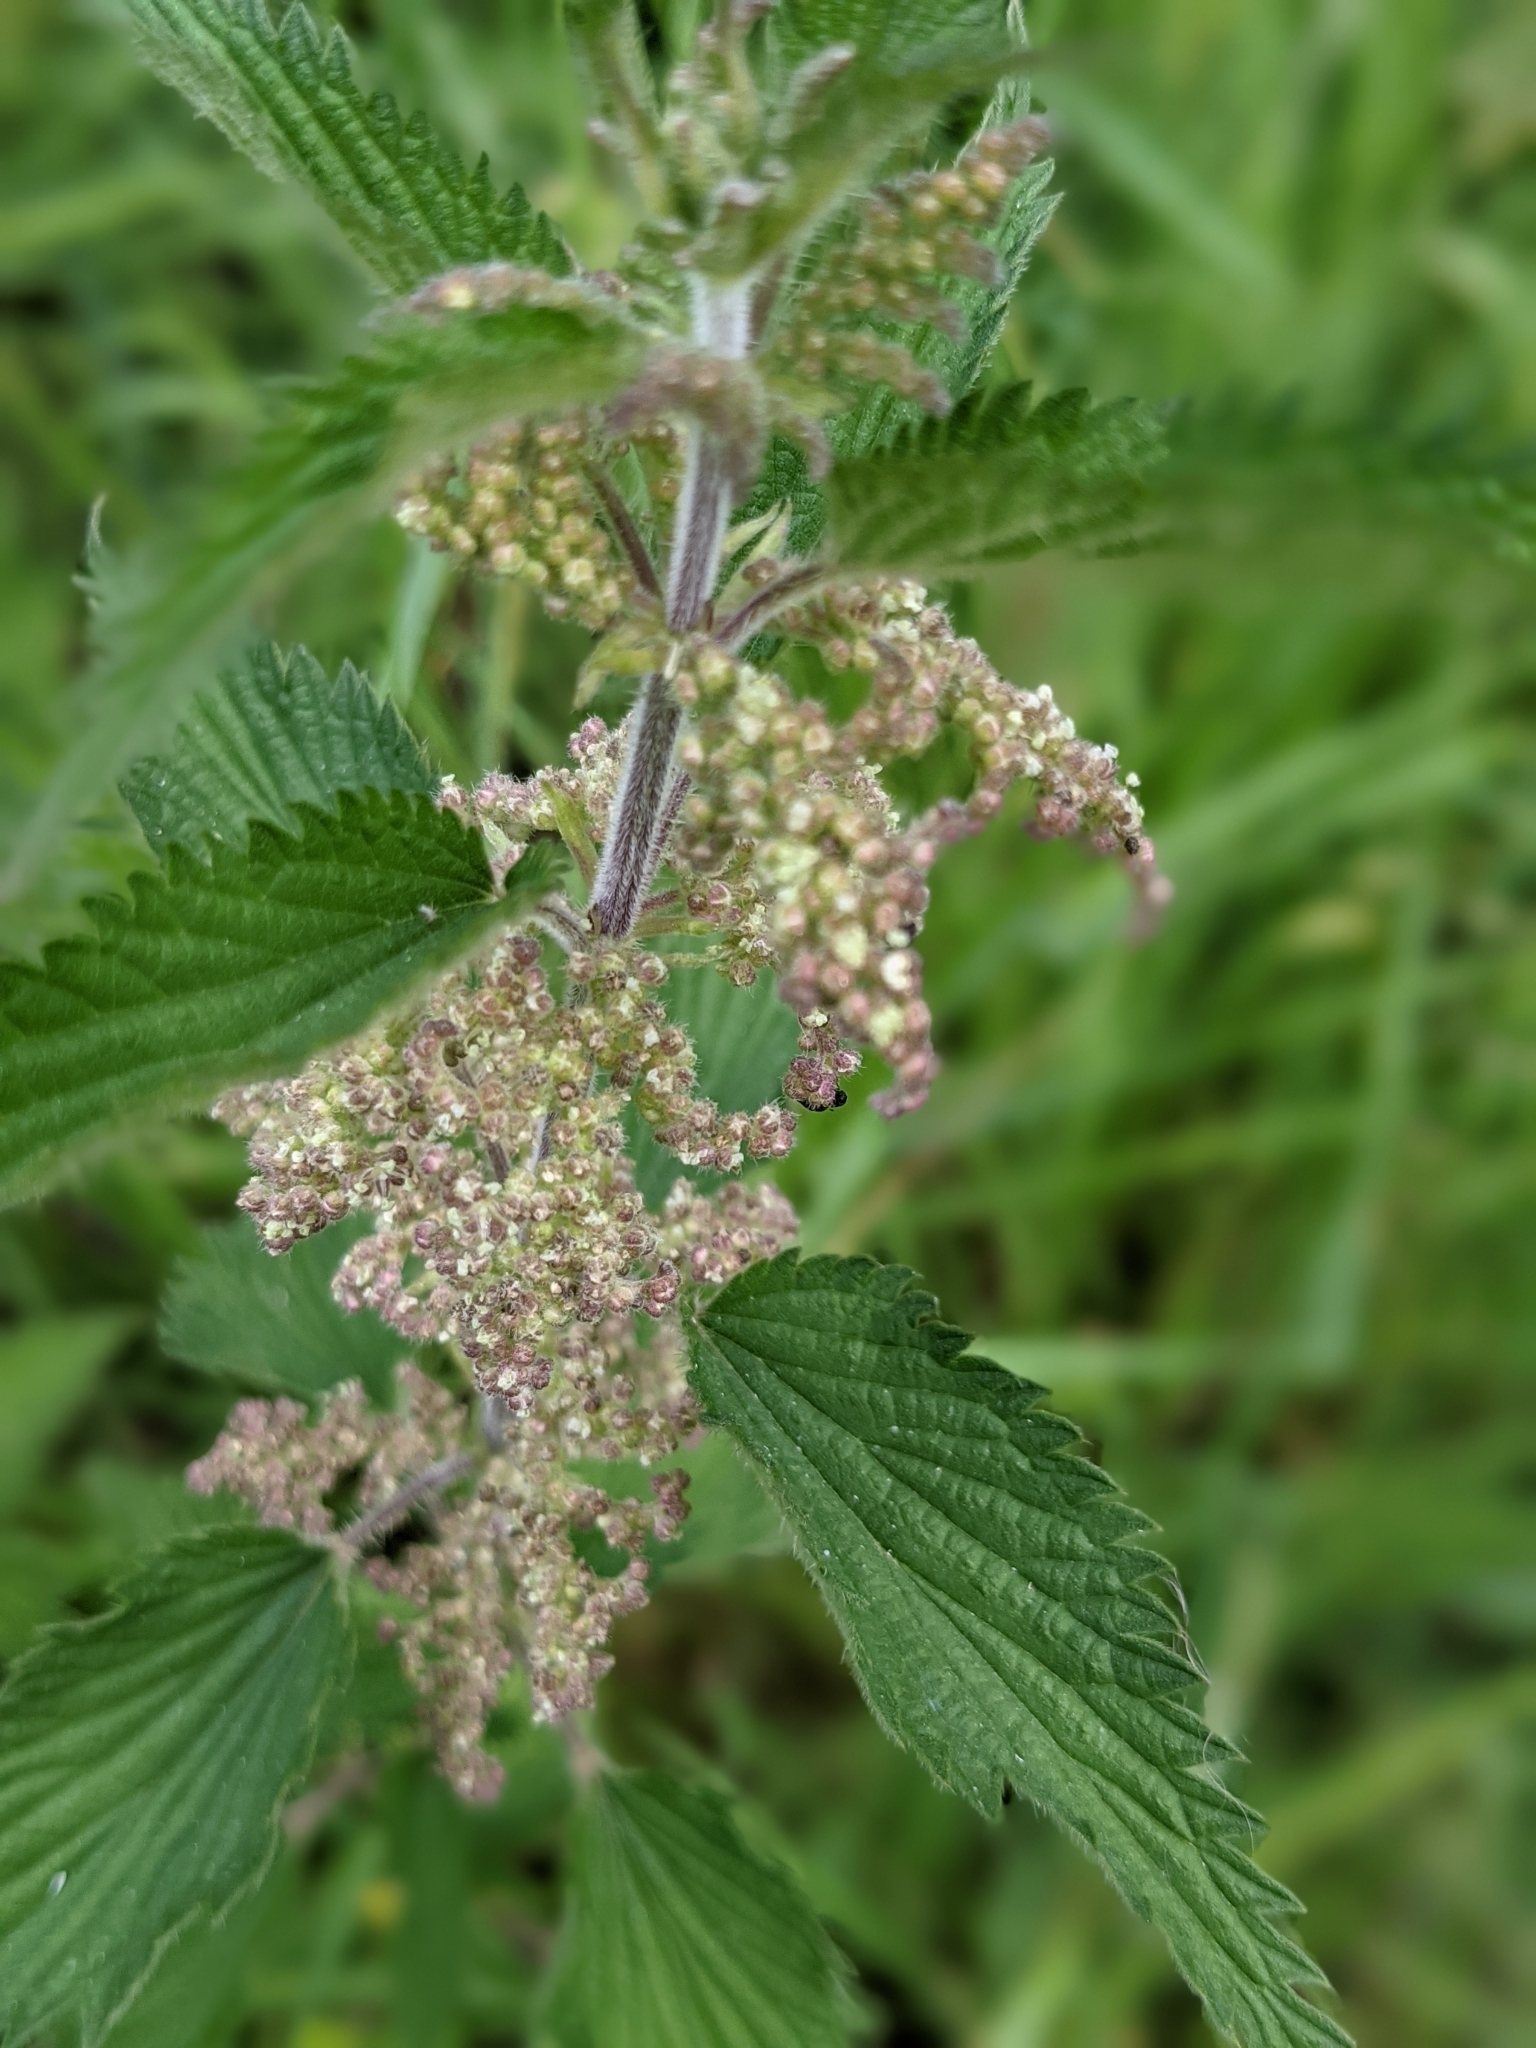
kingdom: Plantae
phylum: Tracheophyta
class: Magnoliopsida
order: Rosales
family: Urticaceae
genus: Urtica
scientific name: Urtica dioica
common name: Common nettle
